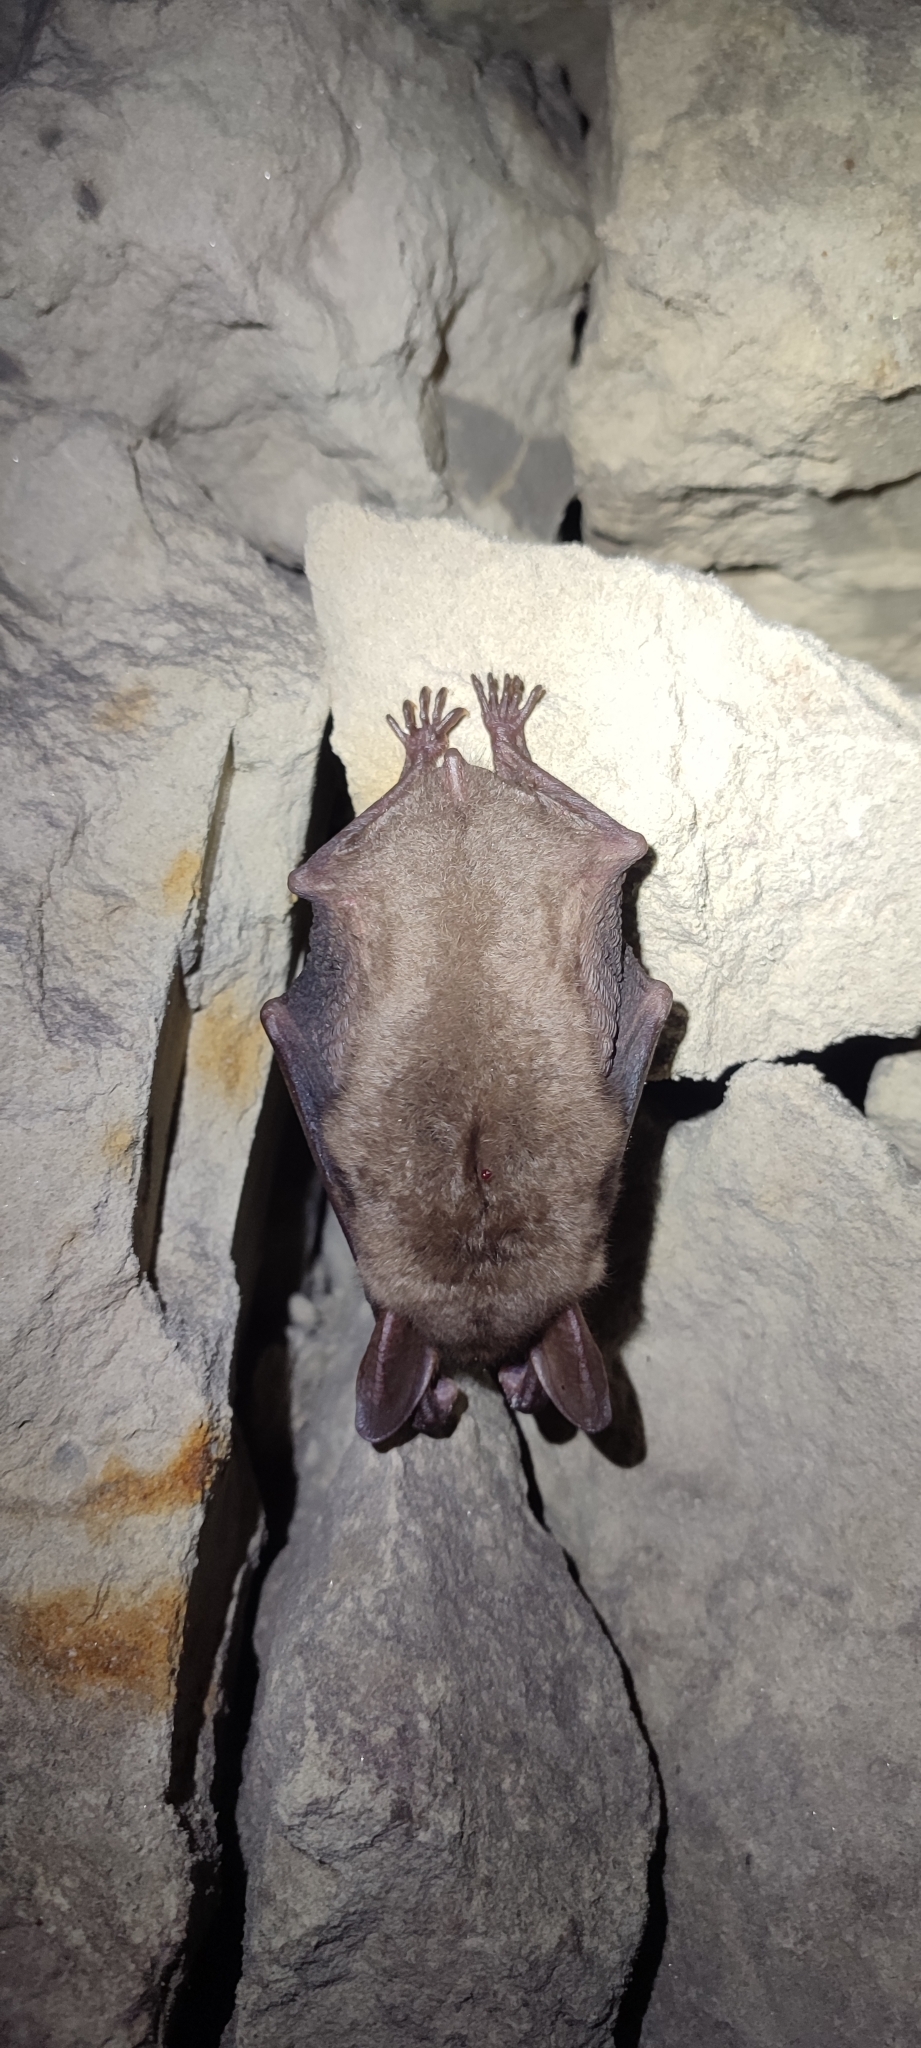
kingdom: Animalia
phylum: Chordata
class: Mammalia
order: Chiroptera
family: Vespertilionidae
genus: Myotis
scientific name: Myotis myotis
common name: Greater mouse-eared bat
